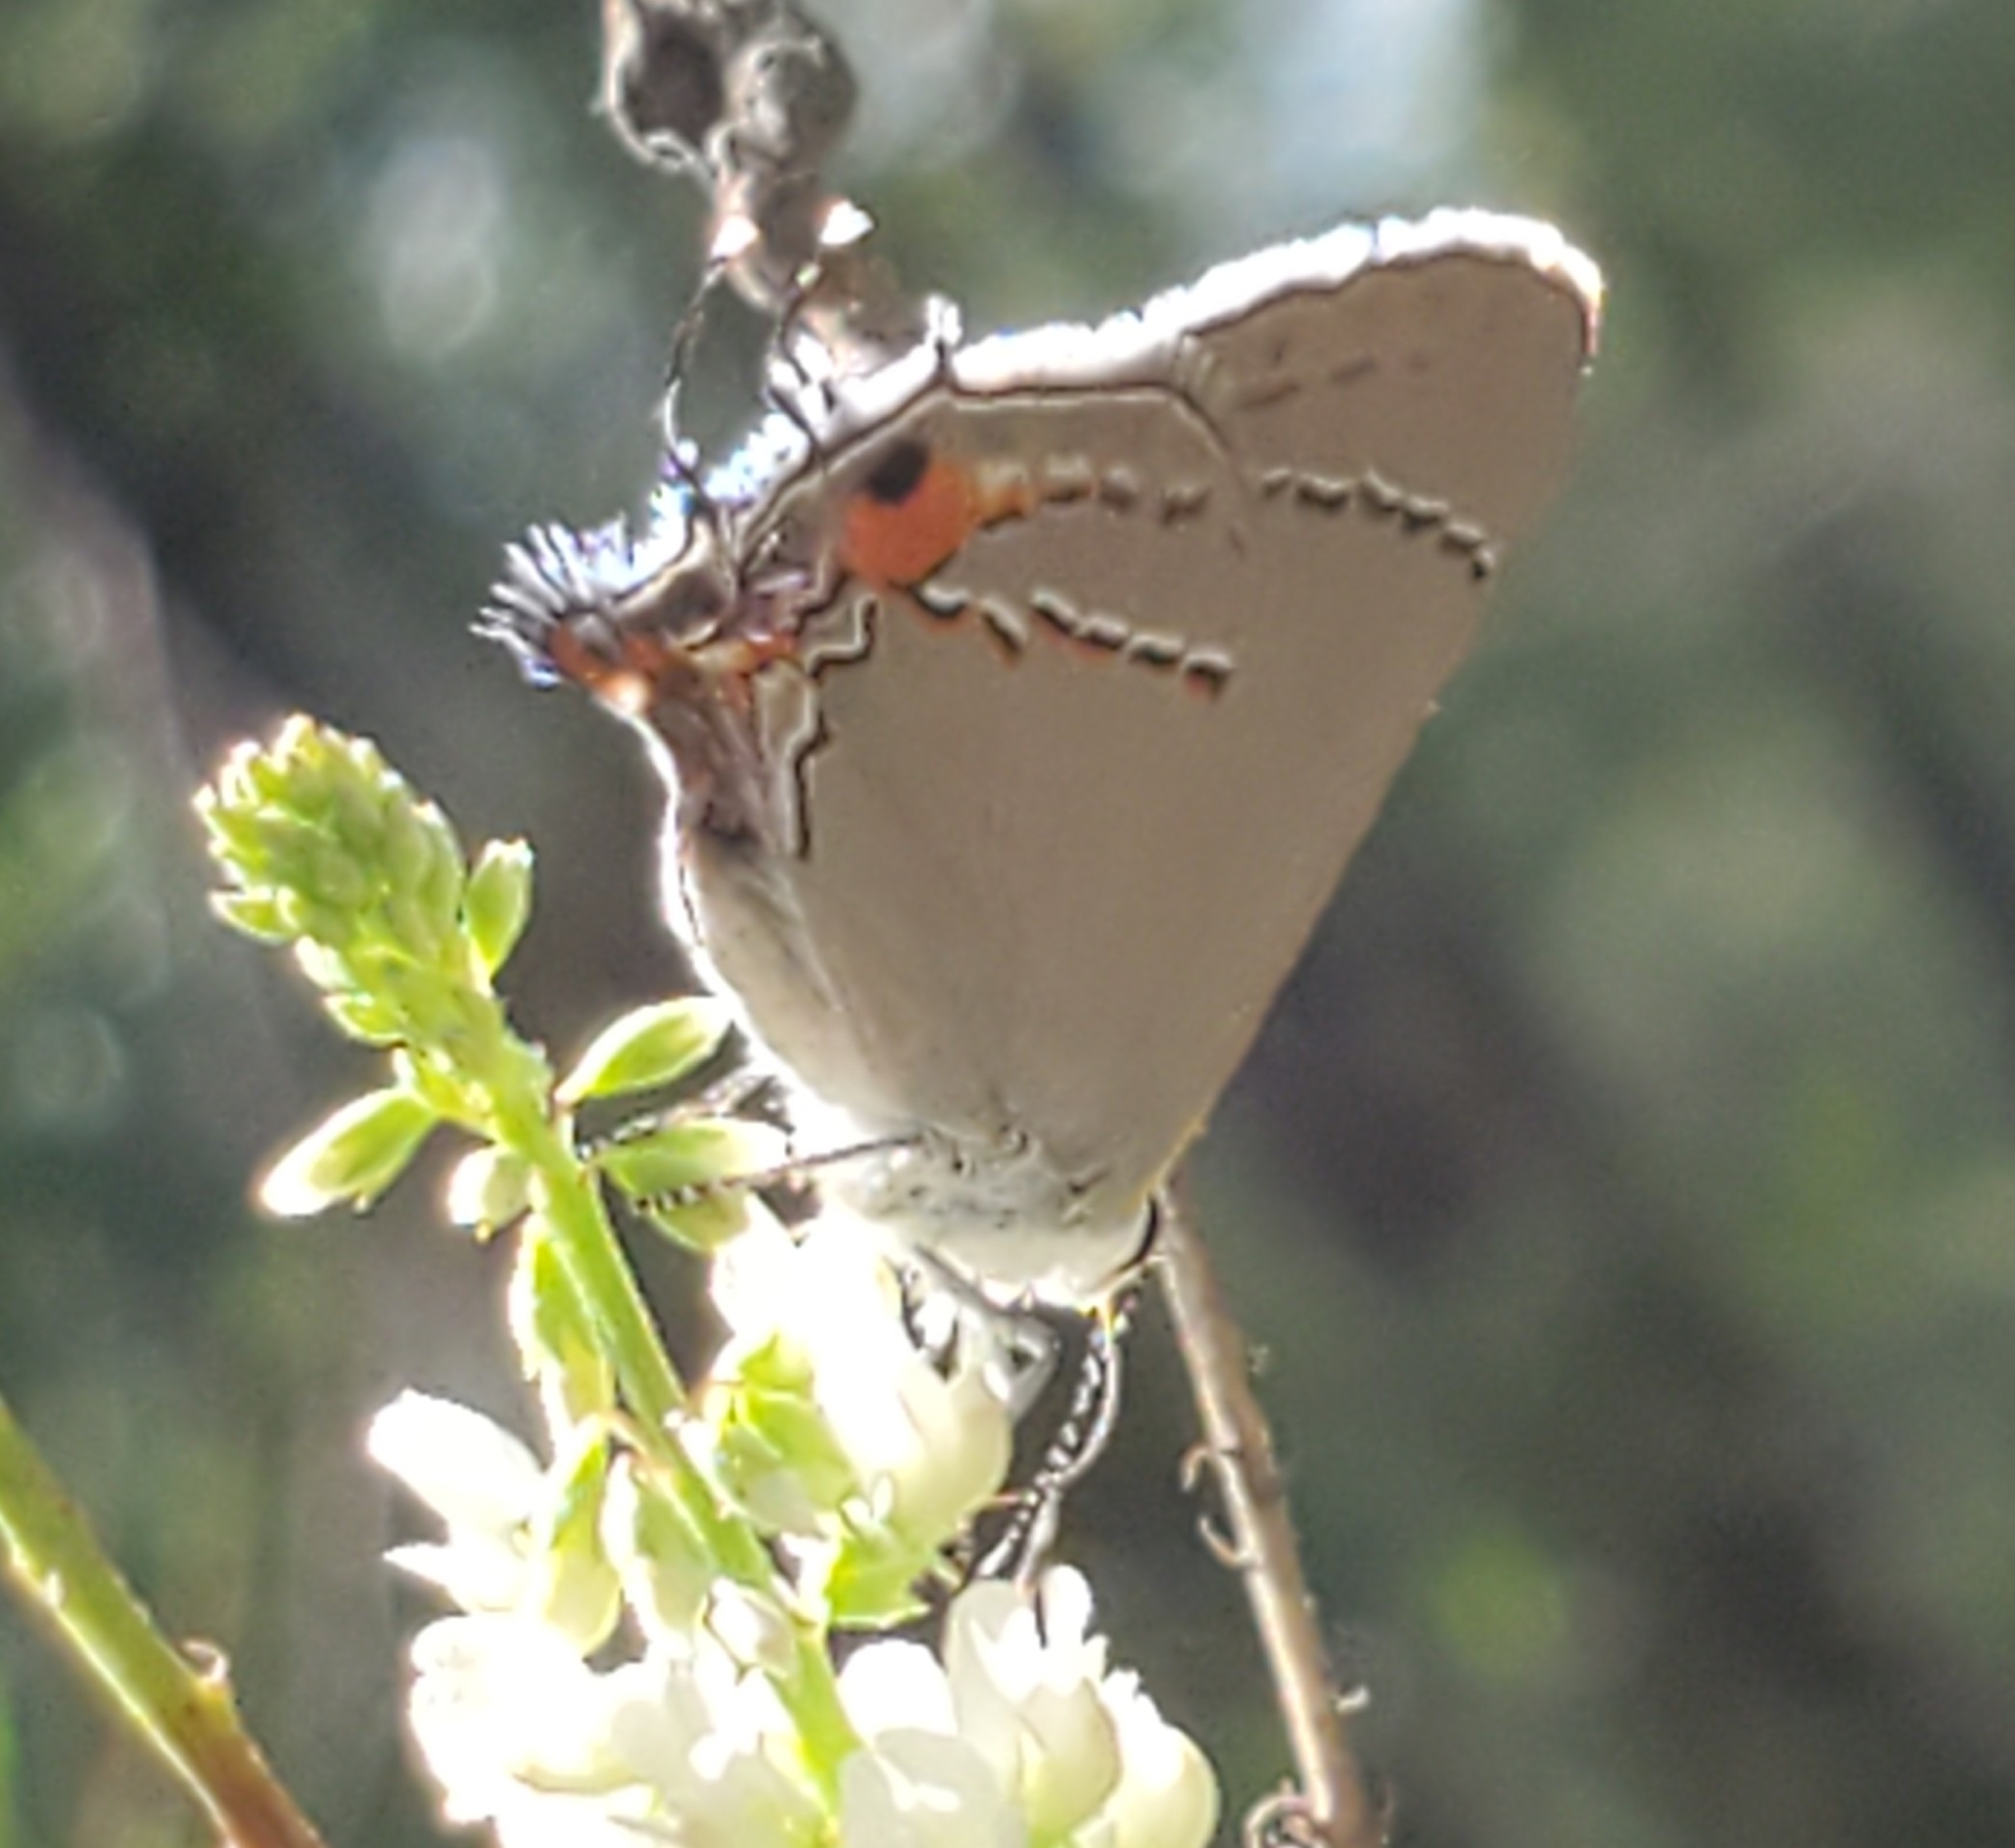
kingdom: Animalia
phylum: Arthropoda
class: Insecta
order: Lepidoptera
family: Lycaenidae
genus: Strymon
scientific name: Strymon melinus
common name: Gray hairstreak
